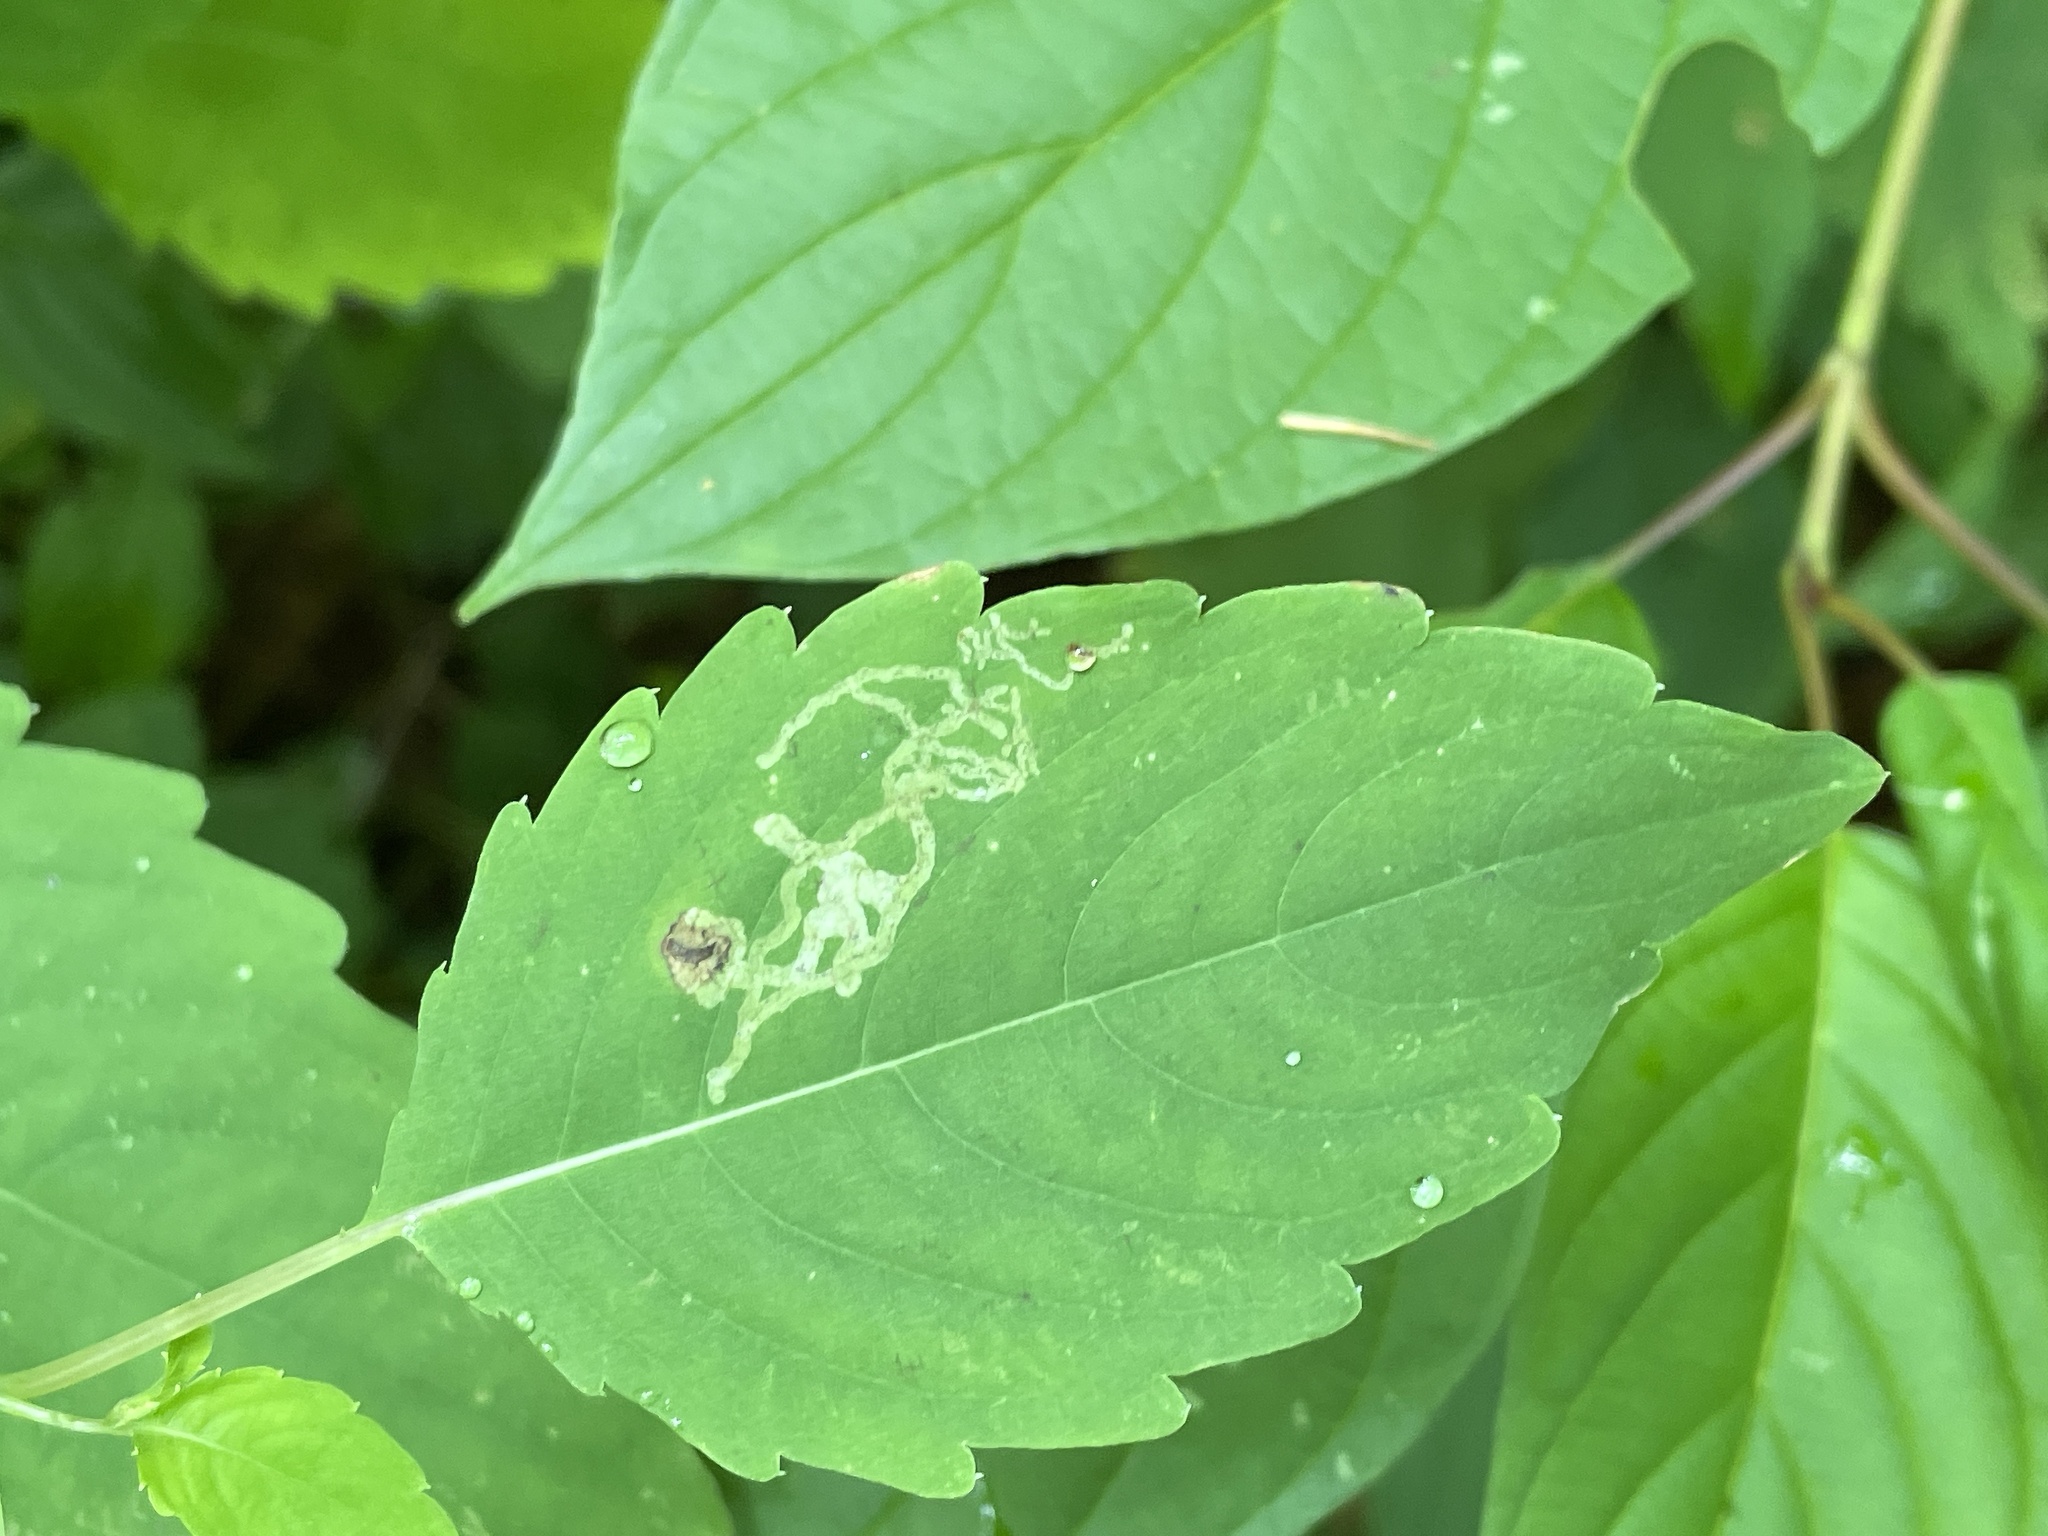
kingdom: Animalia
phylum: Arthropoda
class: Insecta
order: Diptera
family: Agromyzidae
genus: Phytoliriomyza
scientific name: Phytoliriomyza melampyga
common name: Jewelweed leaf-miner fly
